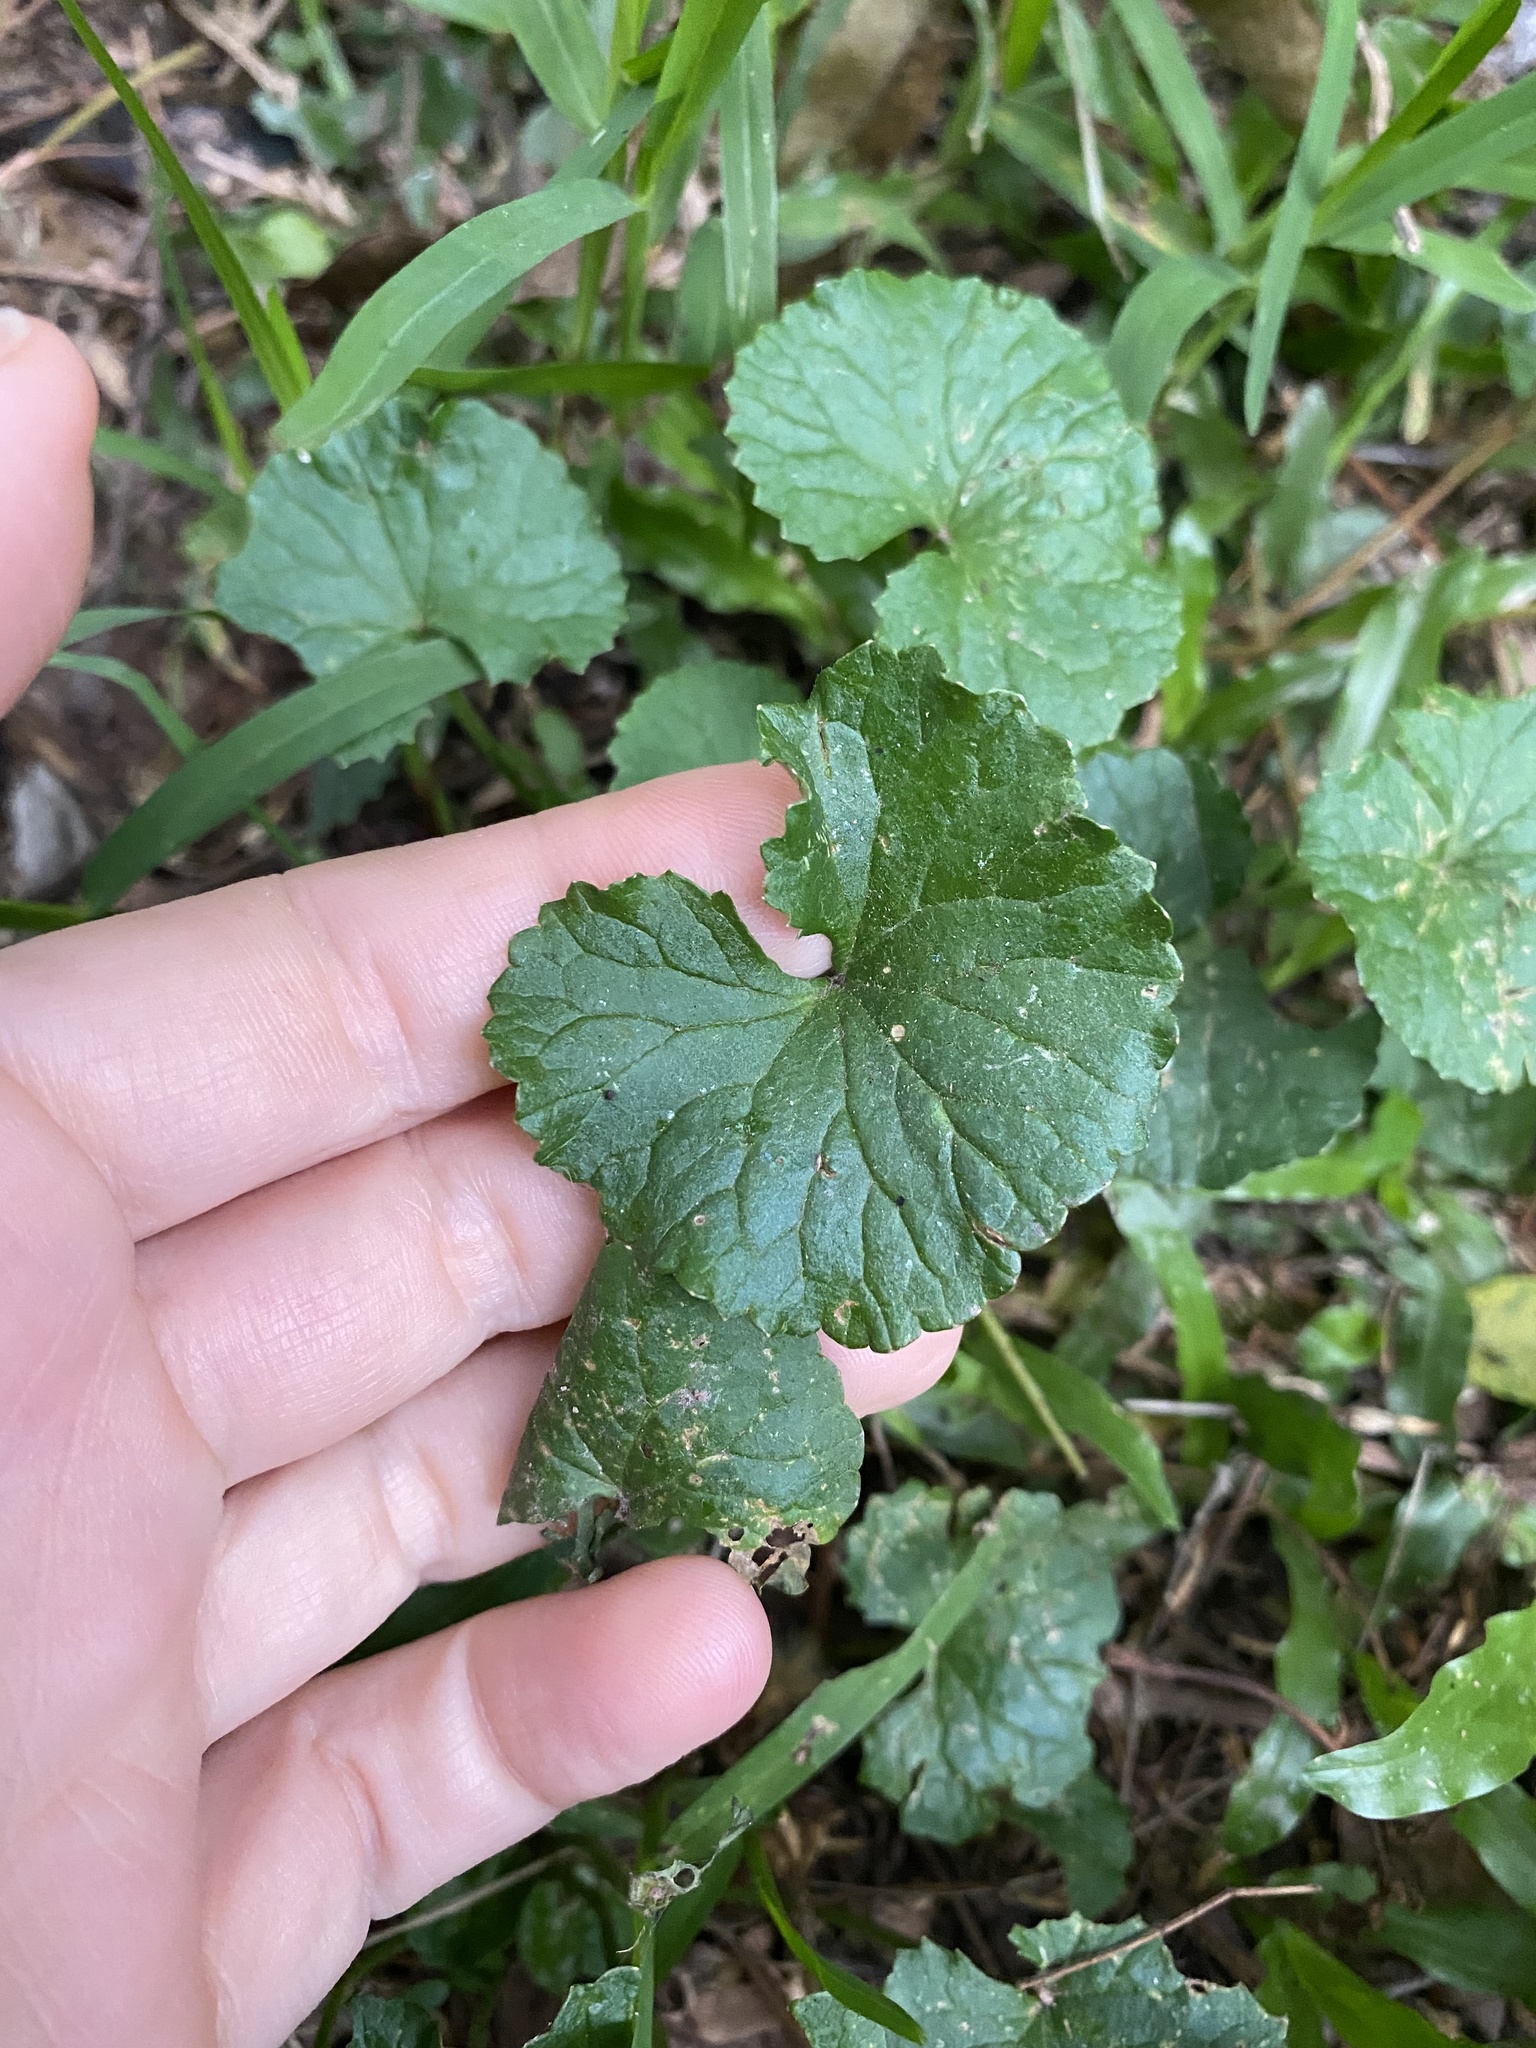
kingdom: Plantae
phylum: Tracheophyta
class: Magnoliopsida
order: Apiales
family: Apiaceae
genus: Centella
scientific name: Centella asiatica
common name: Spadeleaf
